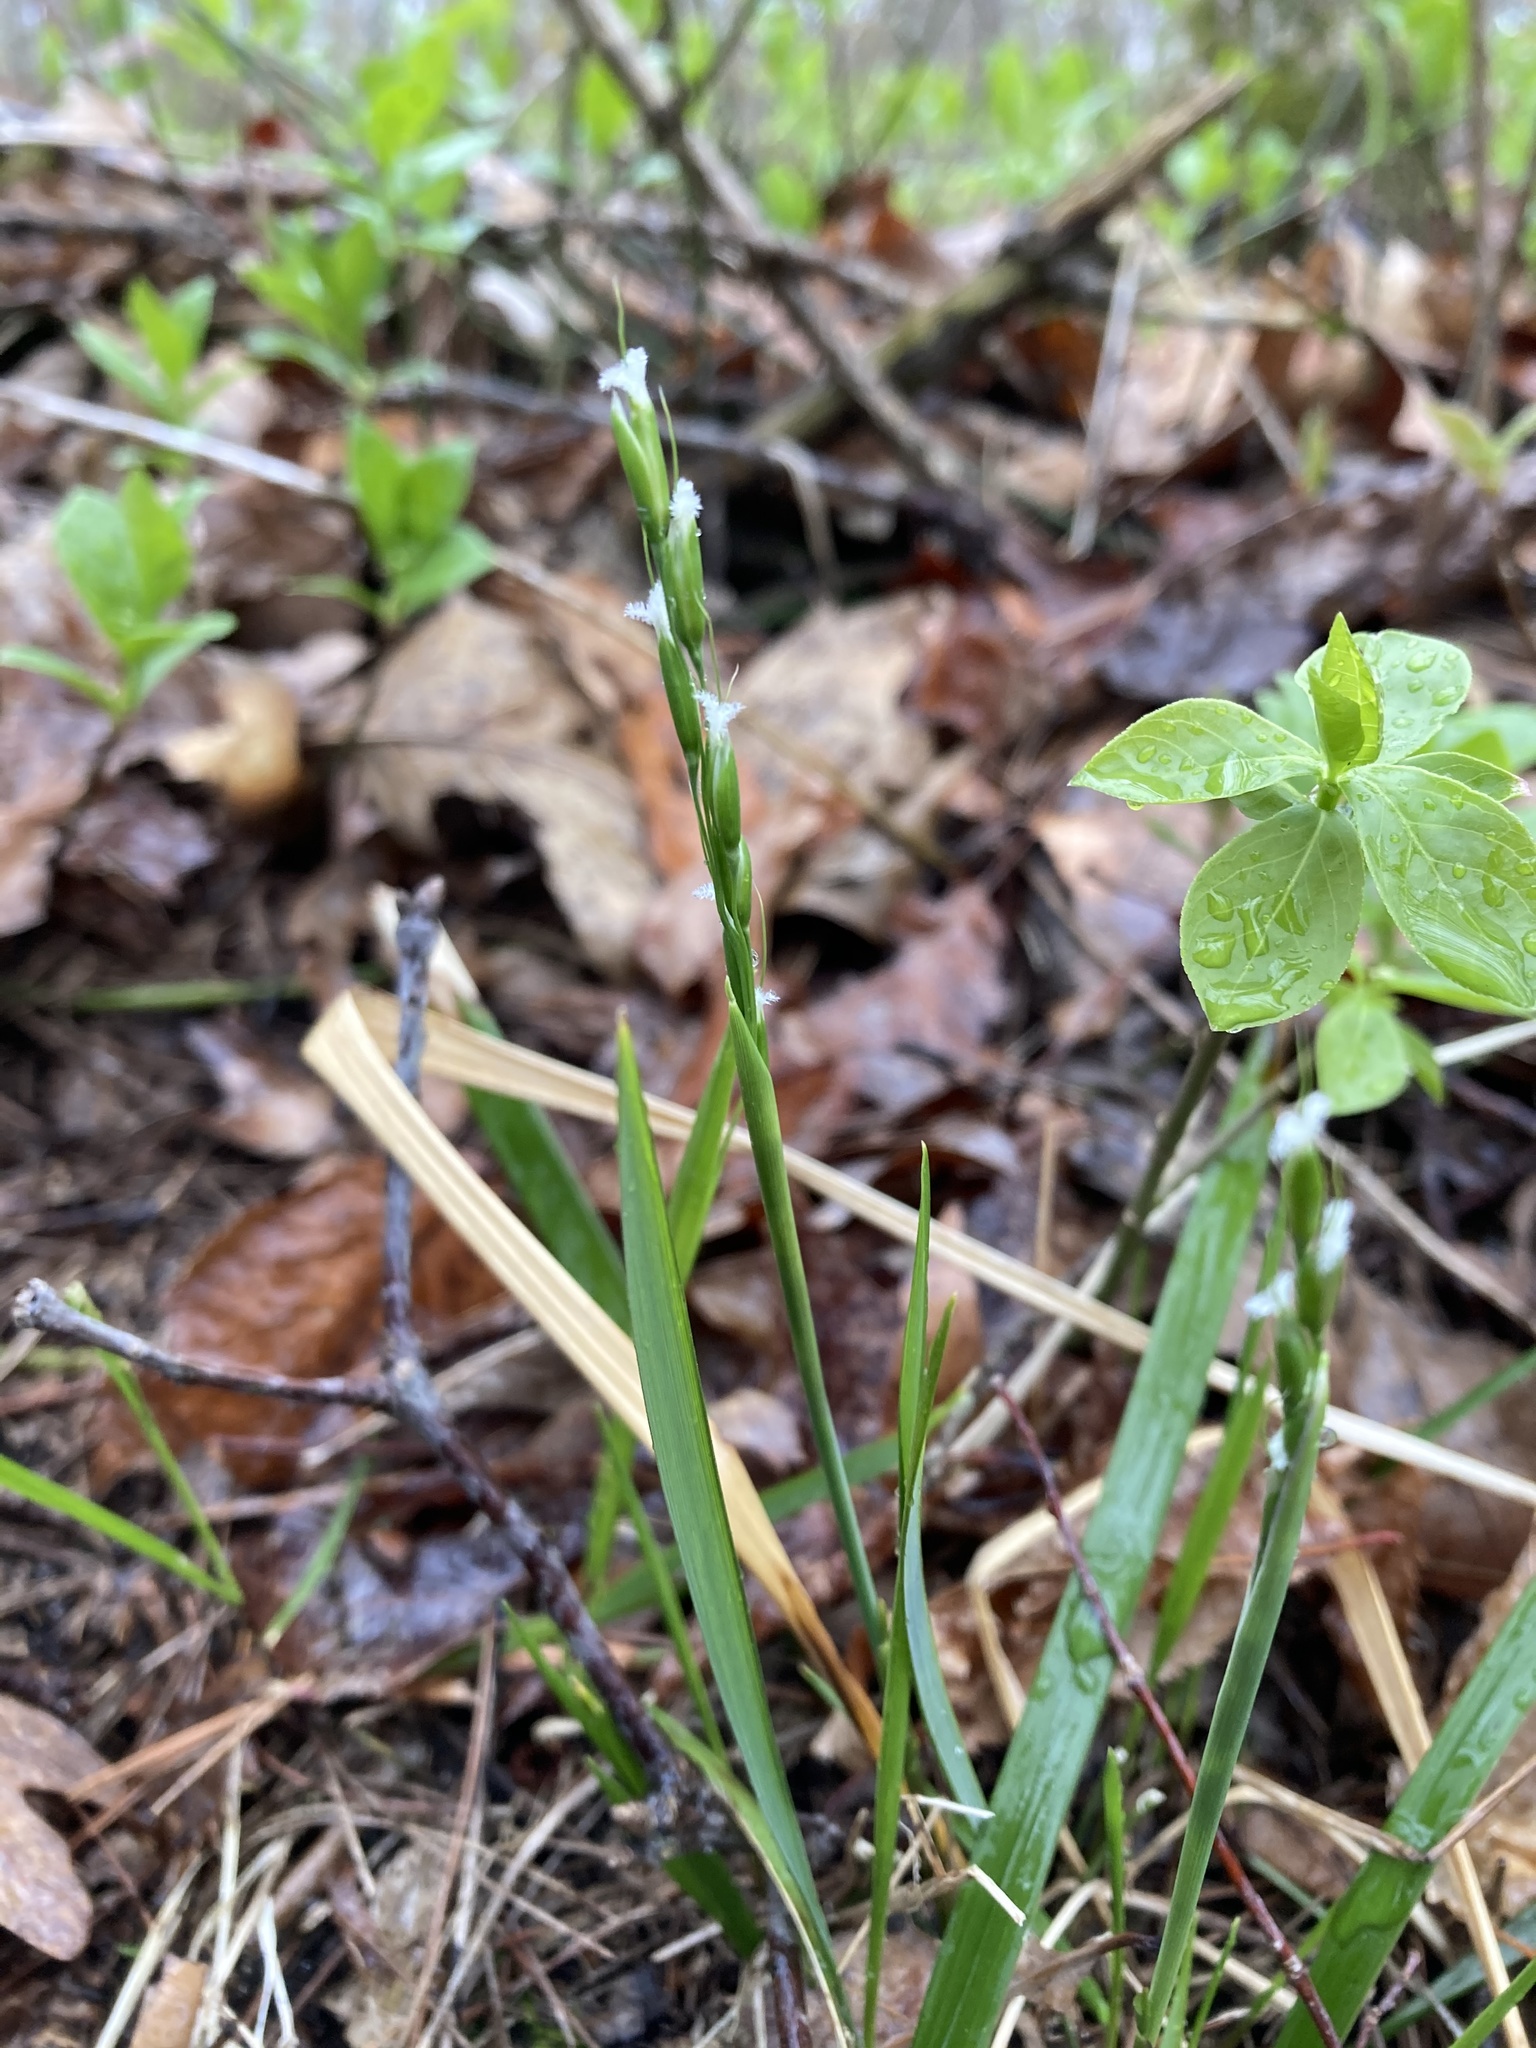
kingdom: Plantae
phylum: Tracheophyta
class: Liliopsida
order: Poales
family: Poaceae
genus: Oryzopsis
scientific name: Oryzopsis asperifolia
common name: Rough-leaved mountain rice
